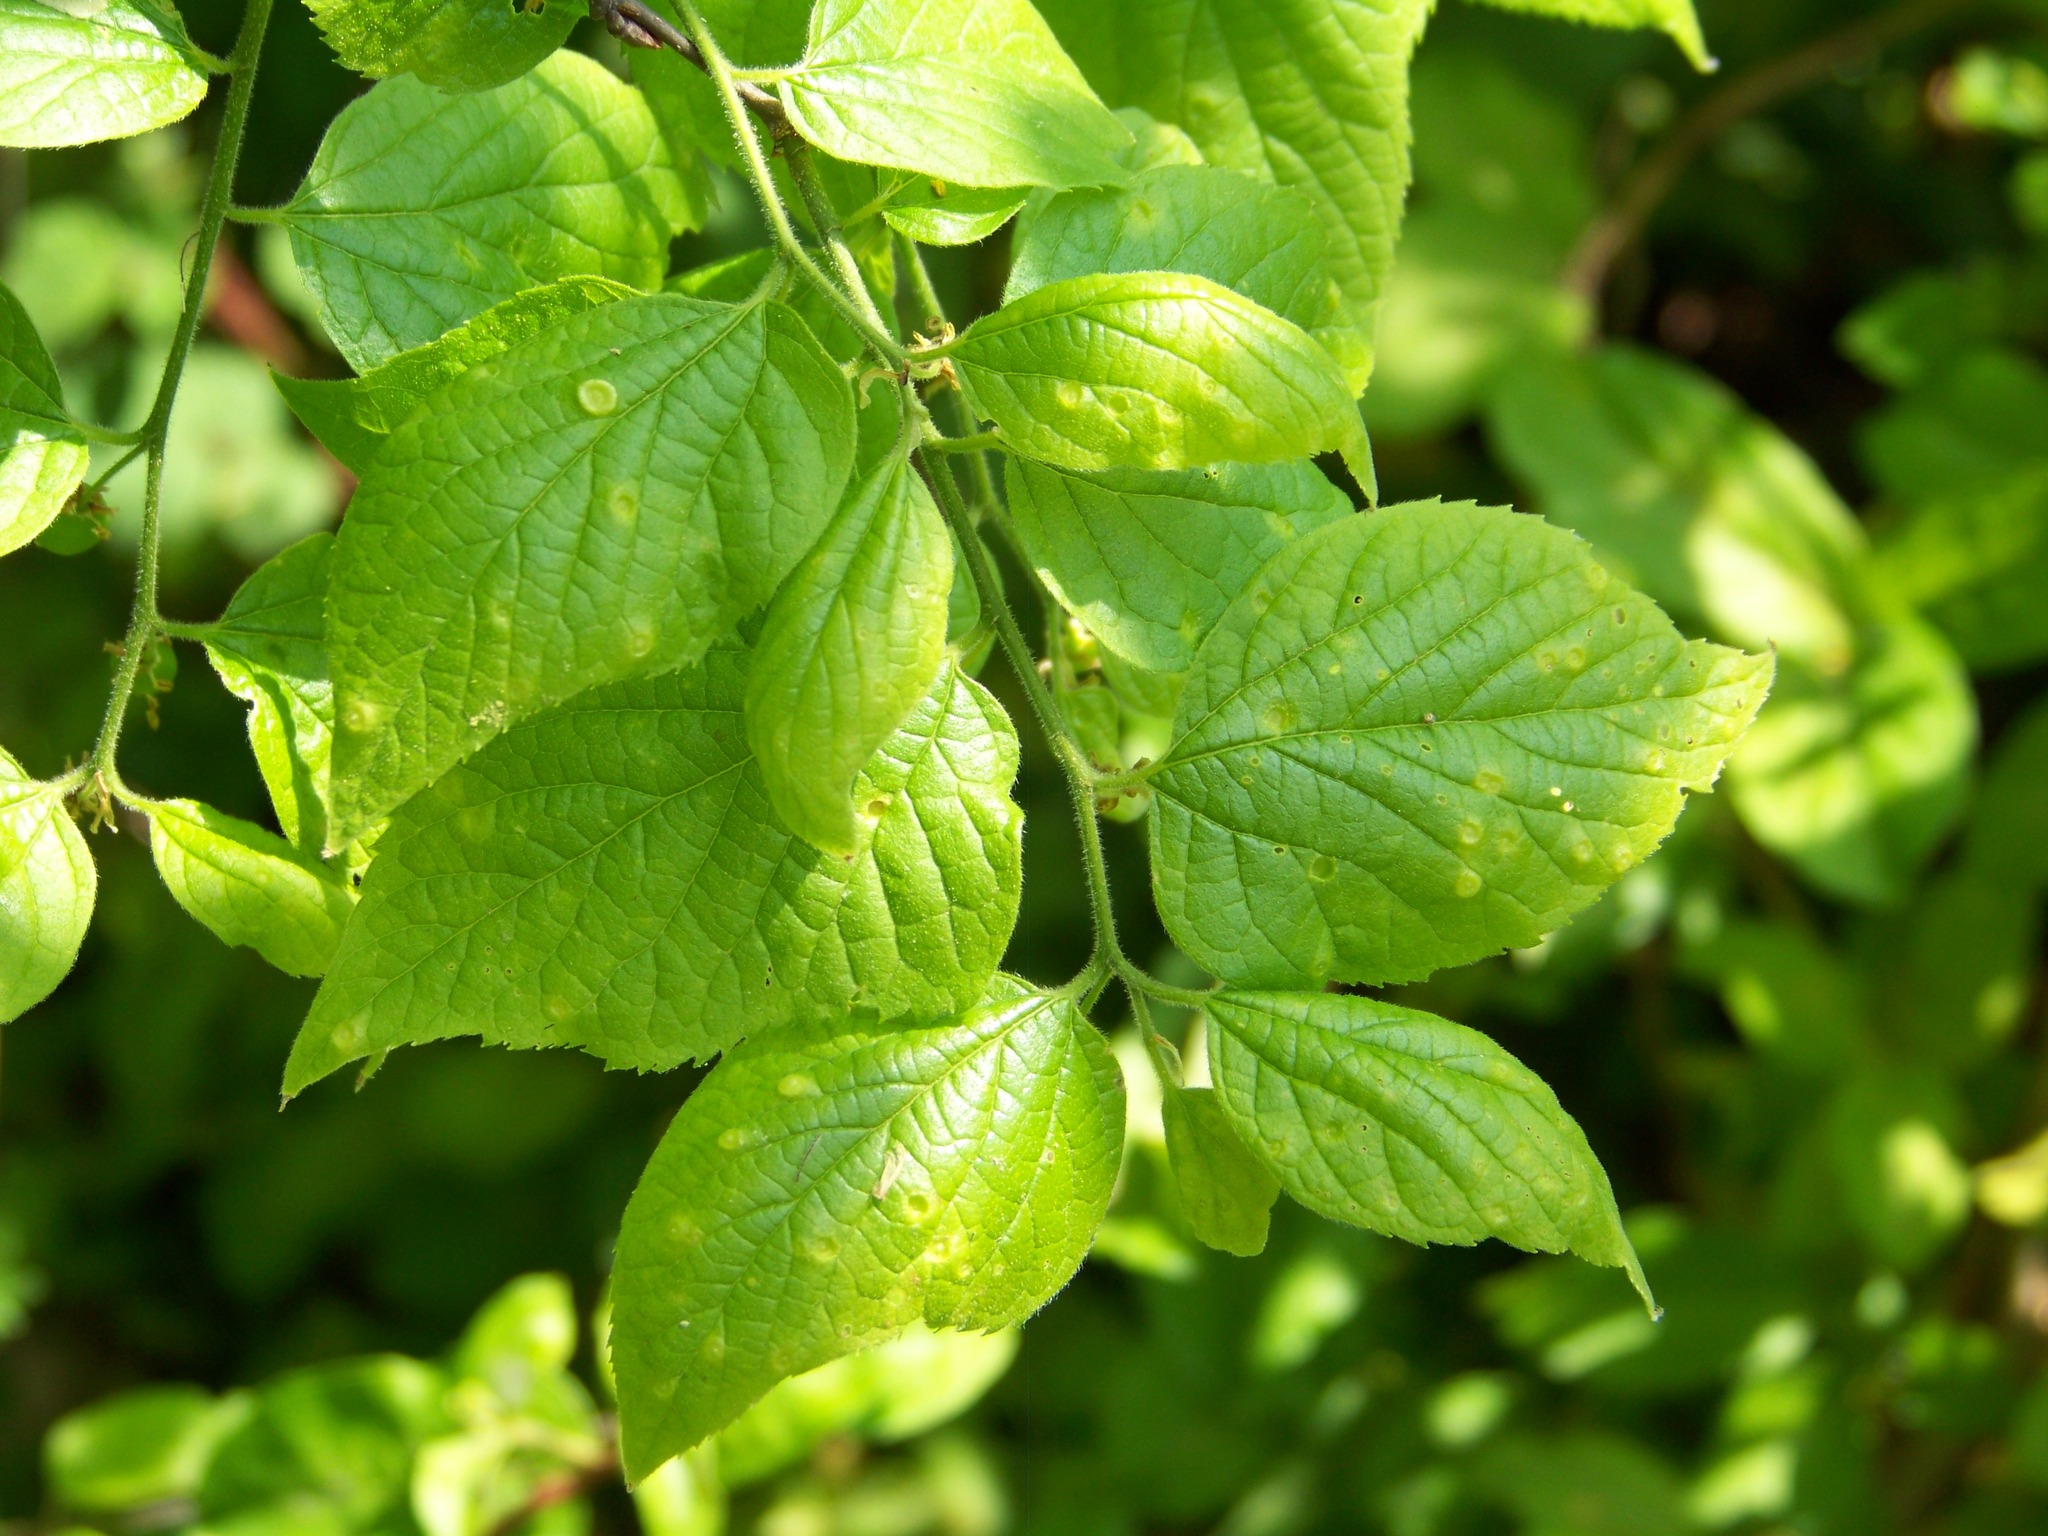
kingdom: Plantae
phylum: Tracheophyta
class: Magnoliopsida
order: Rosales
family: Cannabaceae
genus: Celtis
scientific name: Celtis occidentalis
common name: Common hackberry
